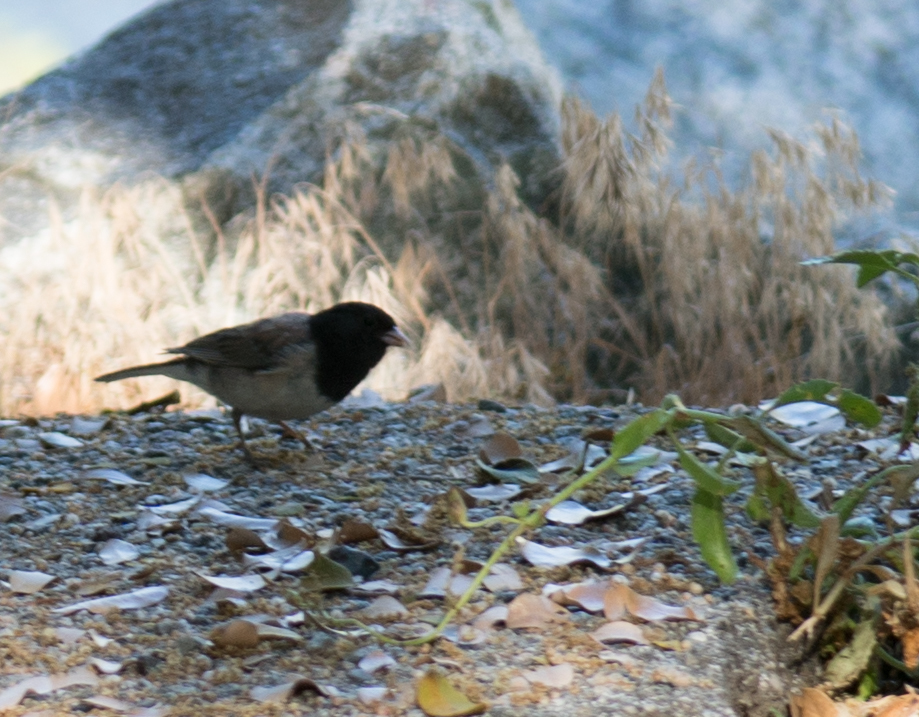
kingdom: Animalia
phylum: Chordata
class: Aves
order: Passeriformes
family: Passerellidae
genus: Junco
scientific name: Junco hyemalis
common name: Dark-eyed junco
